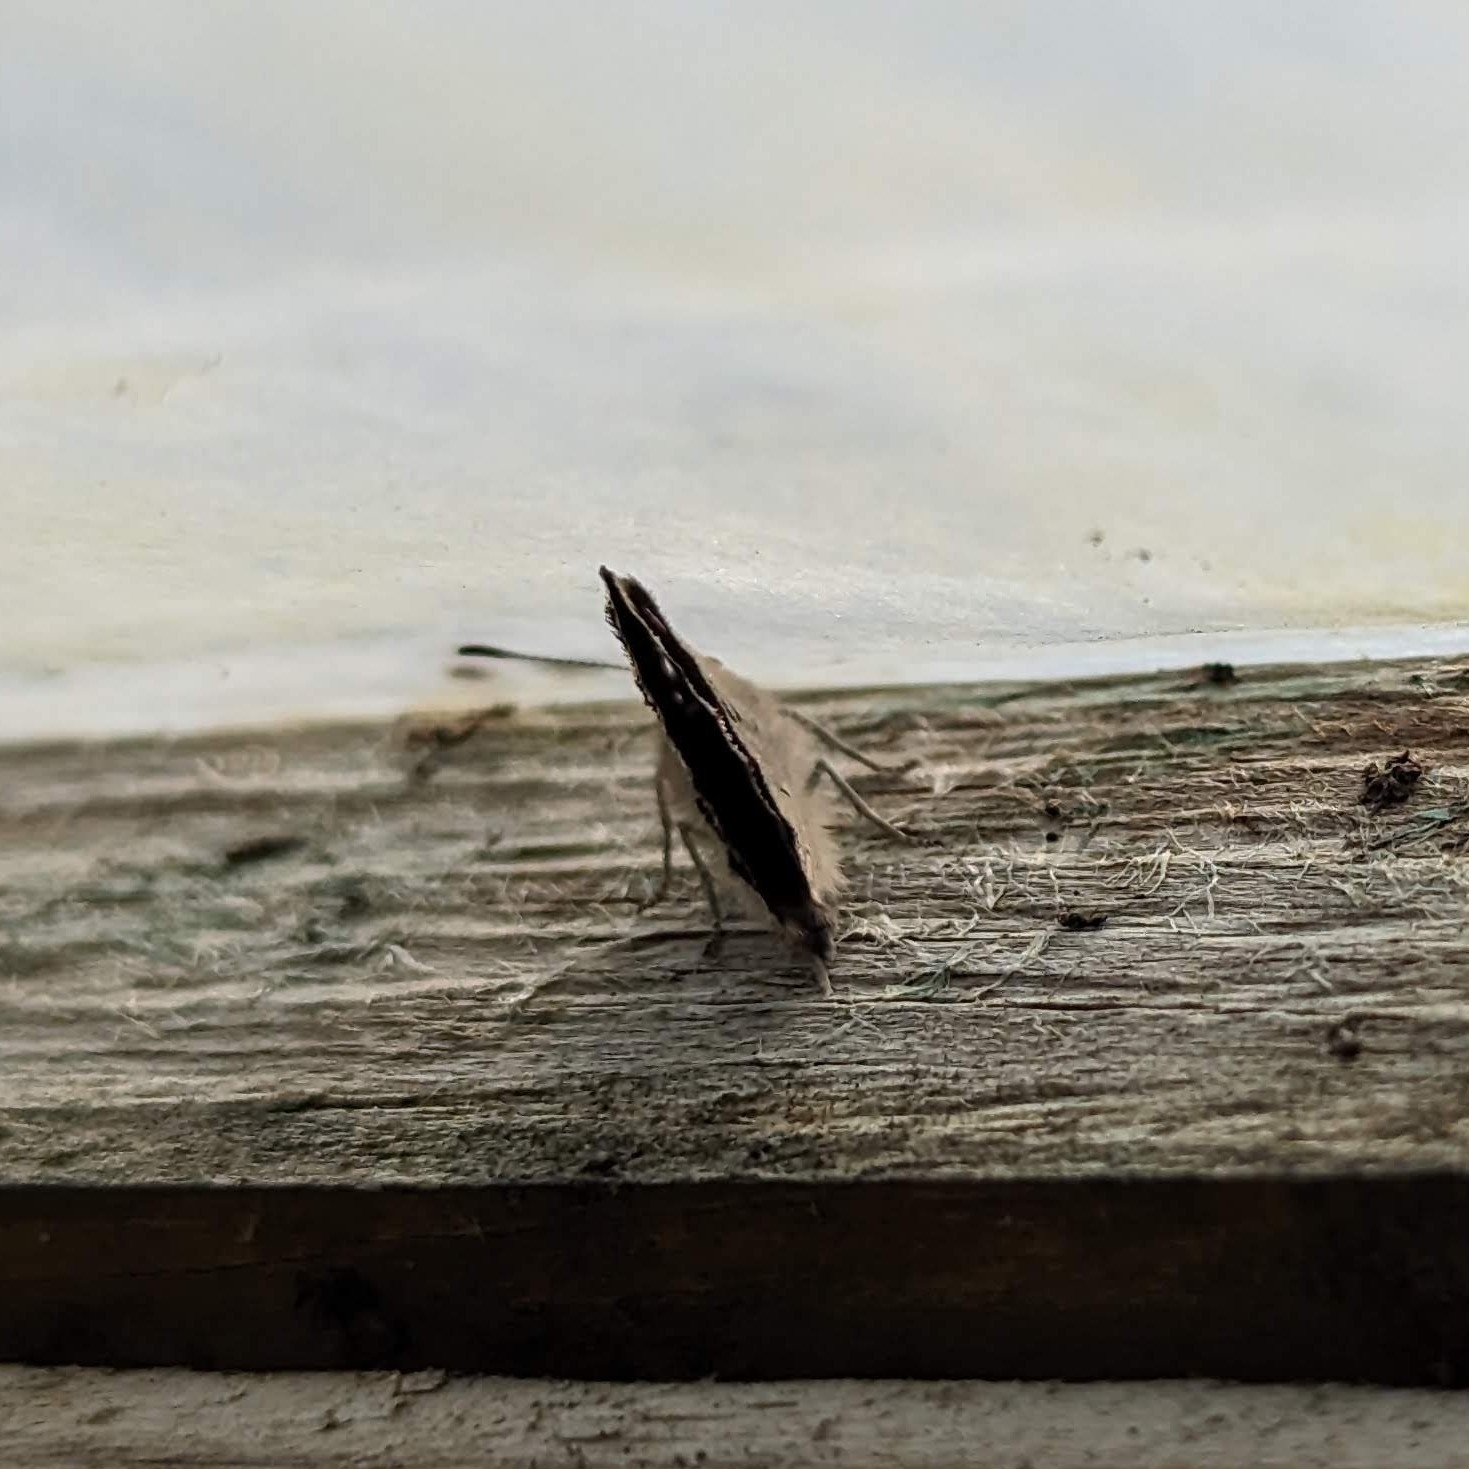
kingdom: Animalia
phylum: Arthropoda
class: Insecta
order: Lepidoptera
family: Lycaenidae
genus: Lycaena
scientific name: Lycaena hypophlaeas
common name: American copper
